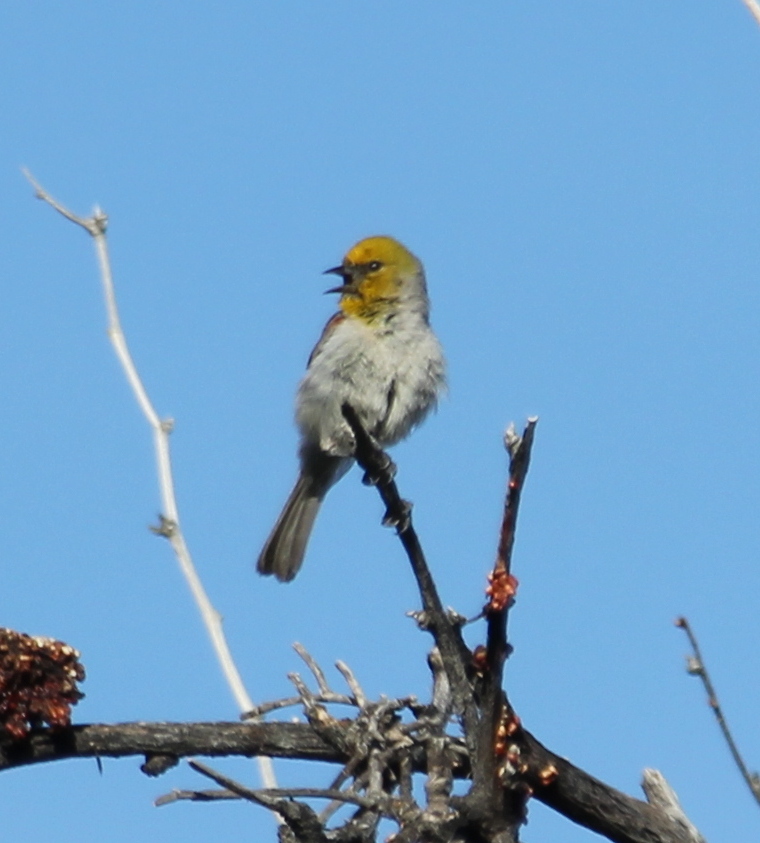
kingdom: Animalia
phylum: Chordata
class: Aves
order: Passeriformes
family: Remizidae
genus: Auriparus
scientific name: Auriparus flaviceps
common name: Verdin
